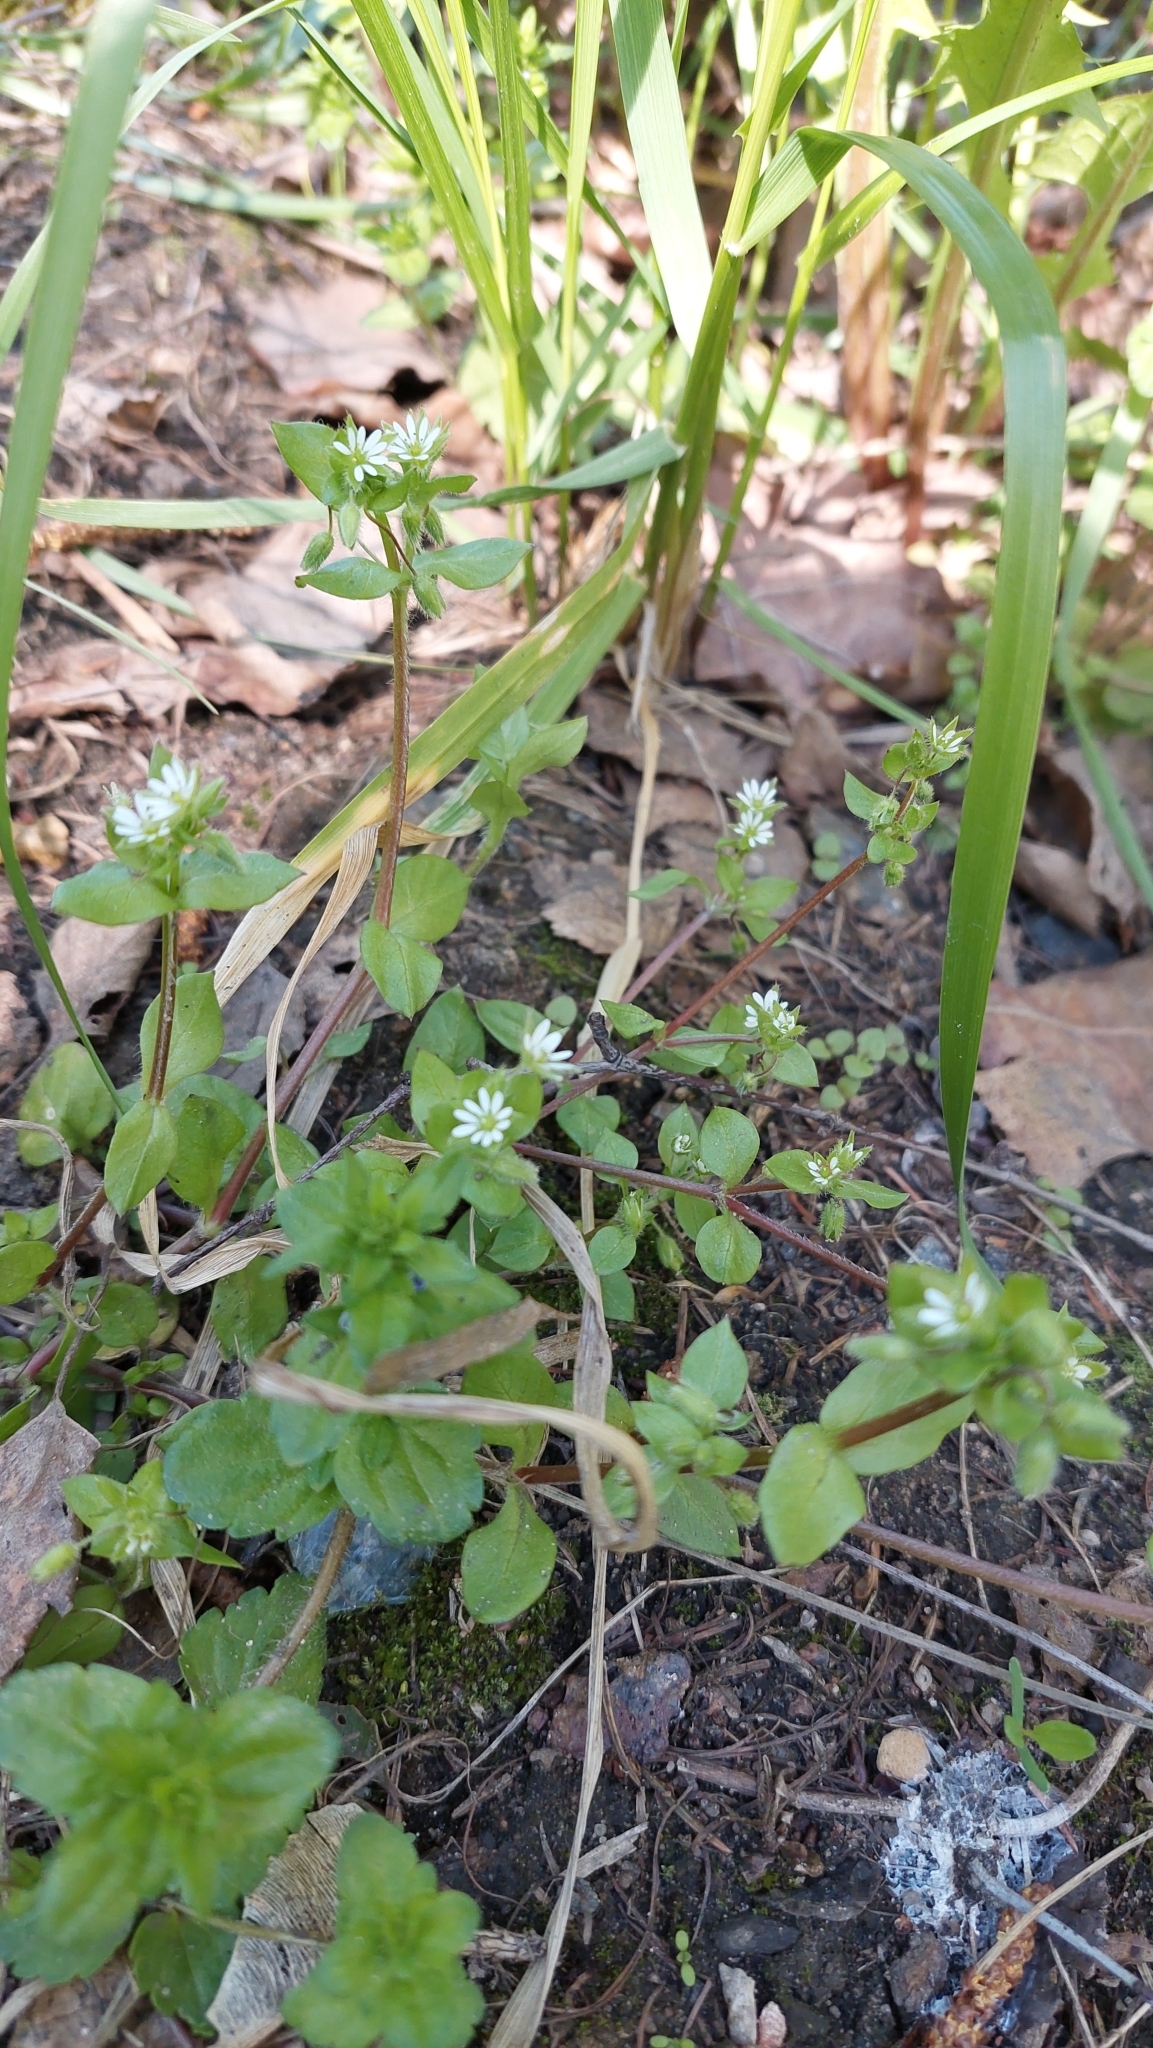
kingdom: Plantae
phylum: Tracheophyta
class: Magnoliopsida
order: Caryophyllales
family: Caryophyllaceae
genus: Stellaria
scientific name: Stellaria media
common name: Common chickweed
